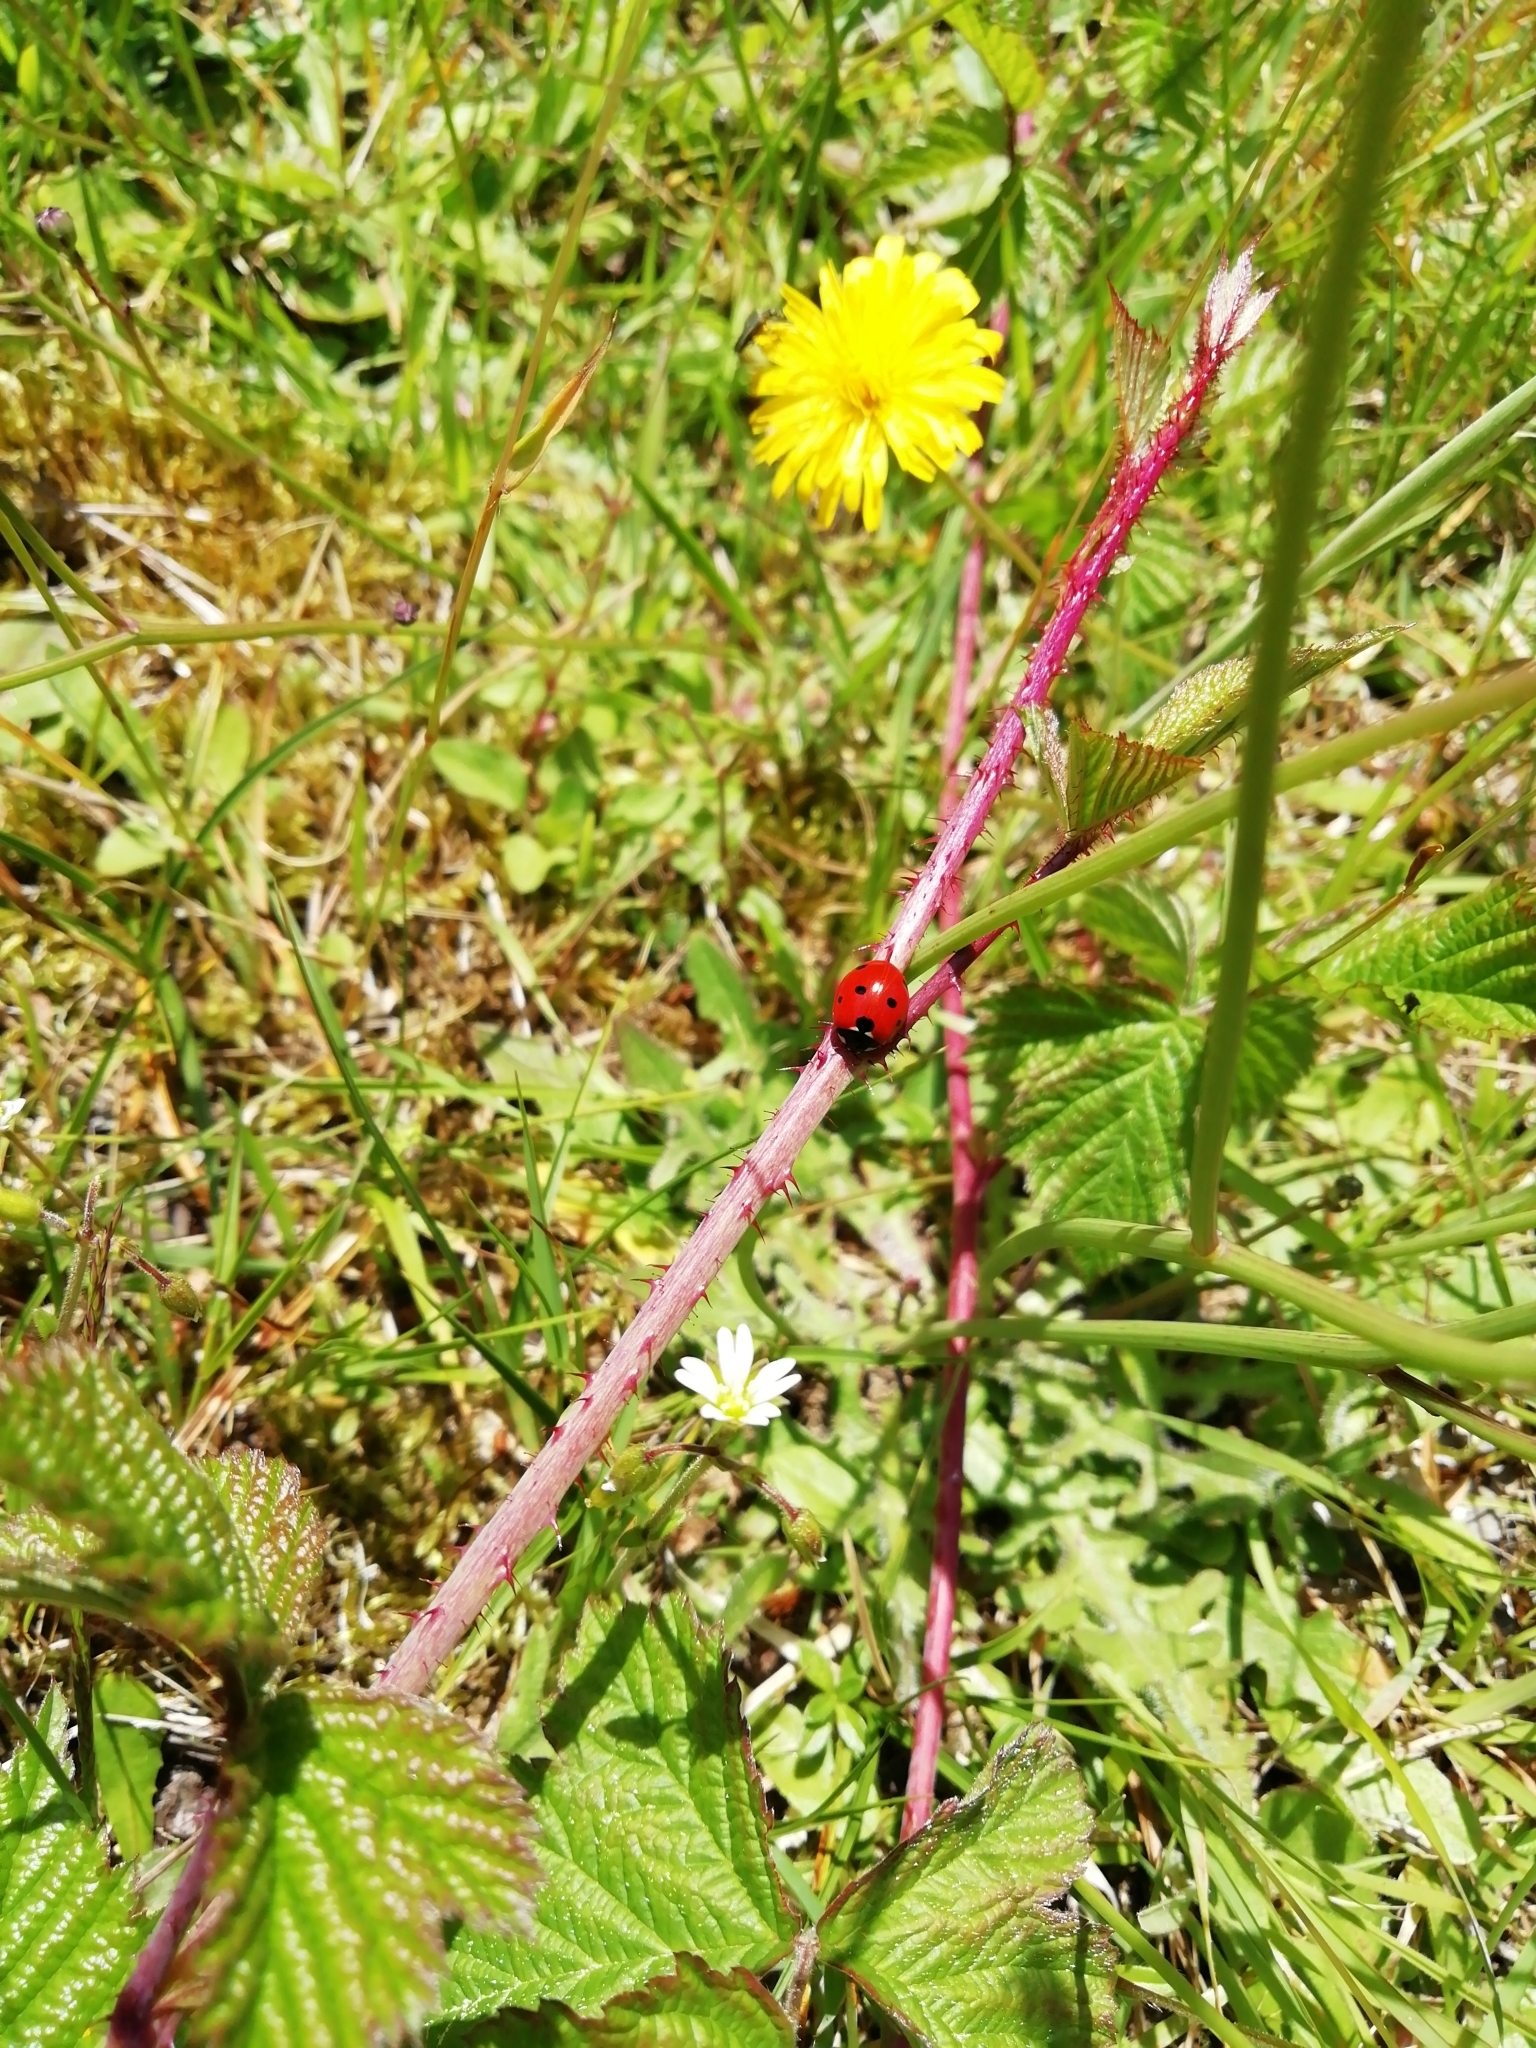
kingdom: Animalia
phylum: Arthropoda
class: Insecta
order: Coleoptera
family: Coccinellidae
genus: Coccinella
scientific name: Coccinella septempunctata
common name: Sevenspotted lady beetle
